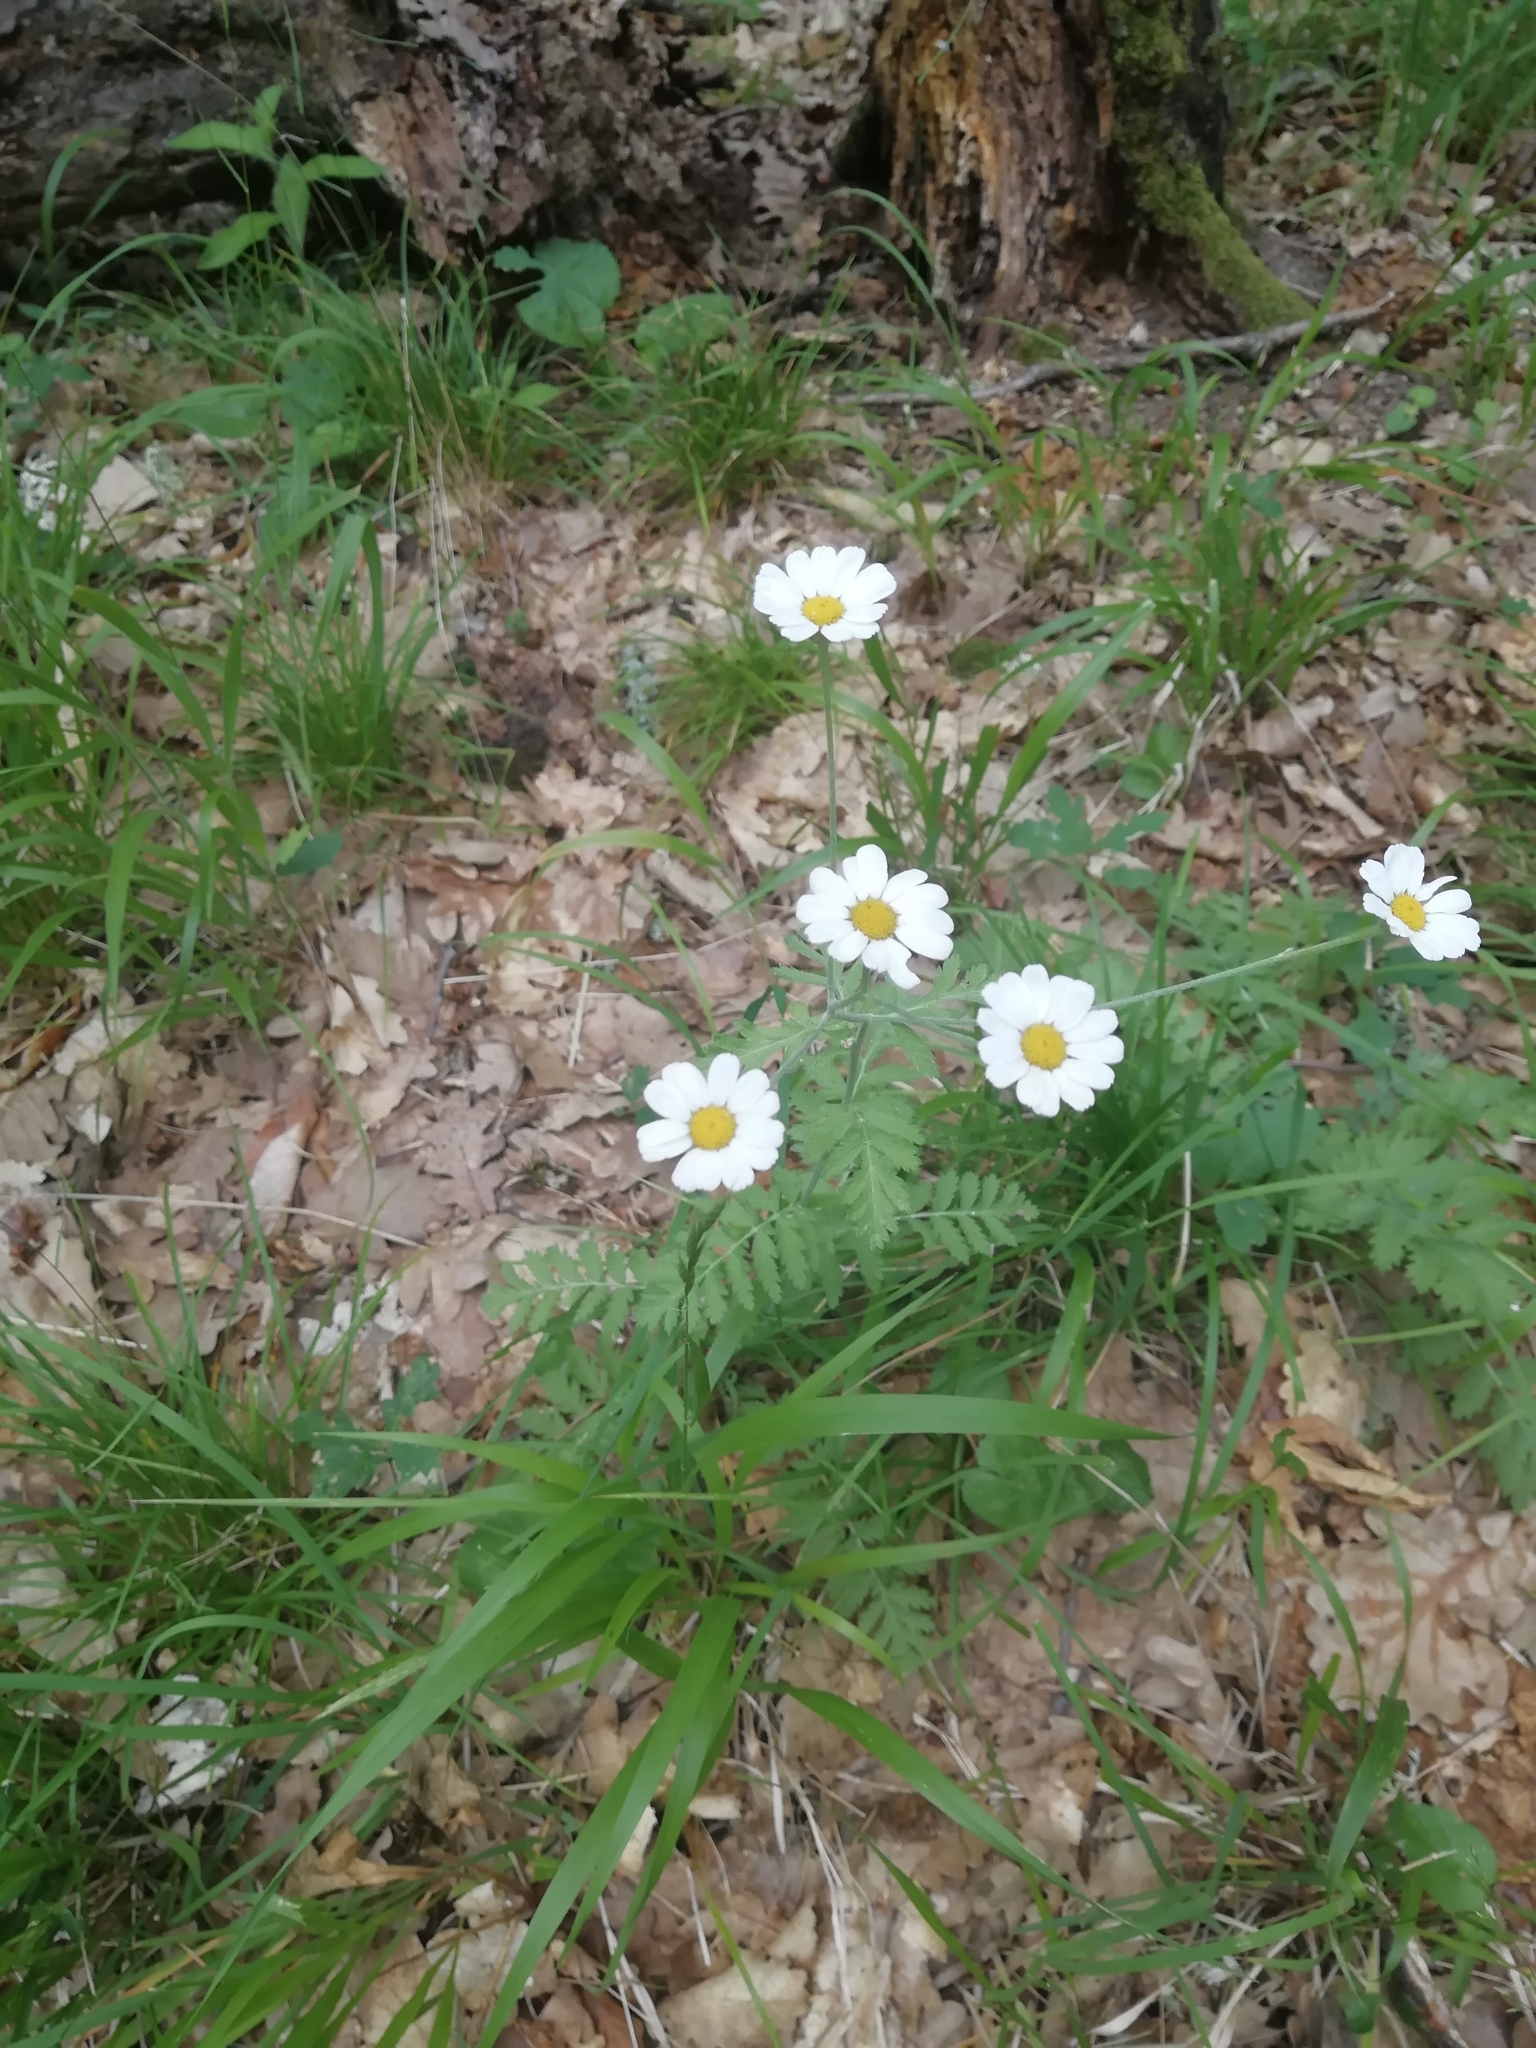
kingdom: Plantae
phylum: Tracheophyta
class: Magnoliopsida
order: Asterales
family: Asteraceae
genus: Tanacetum
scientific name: Tanacetum poteriifolium
